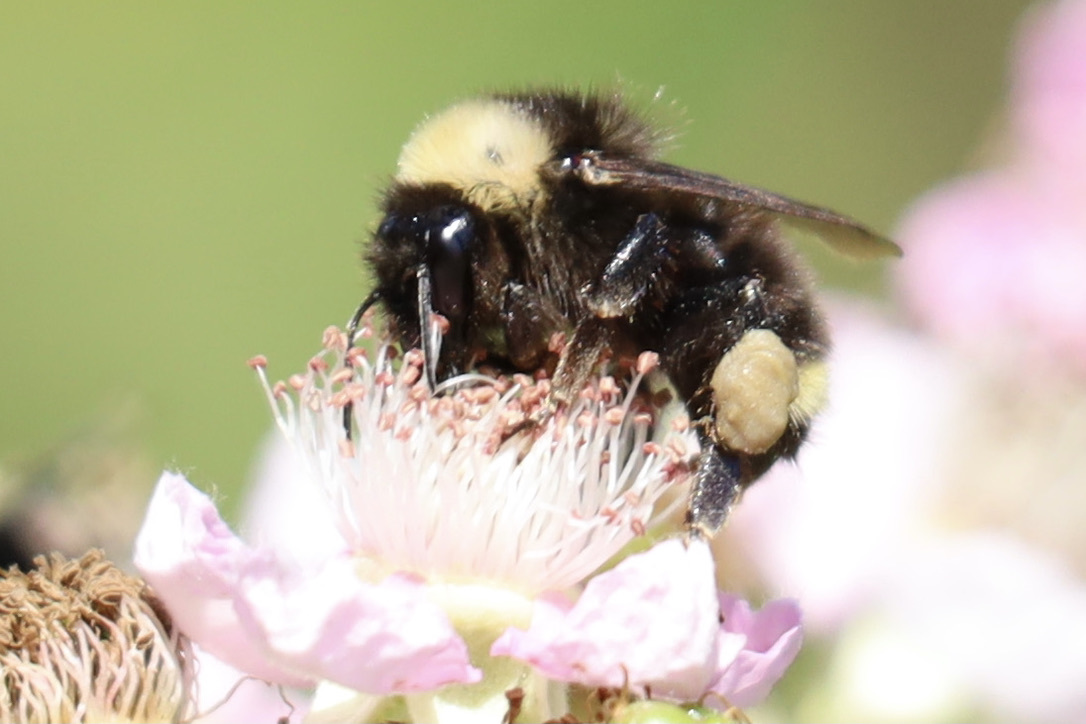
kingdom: Animalia
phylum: Arthropoda
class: Insecta
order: Hymenoptera
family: Apidae
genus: Bombus
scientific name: Bombus californicus
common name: California bumble bee
